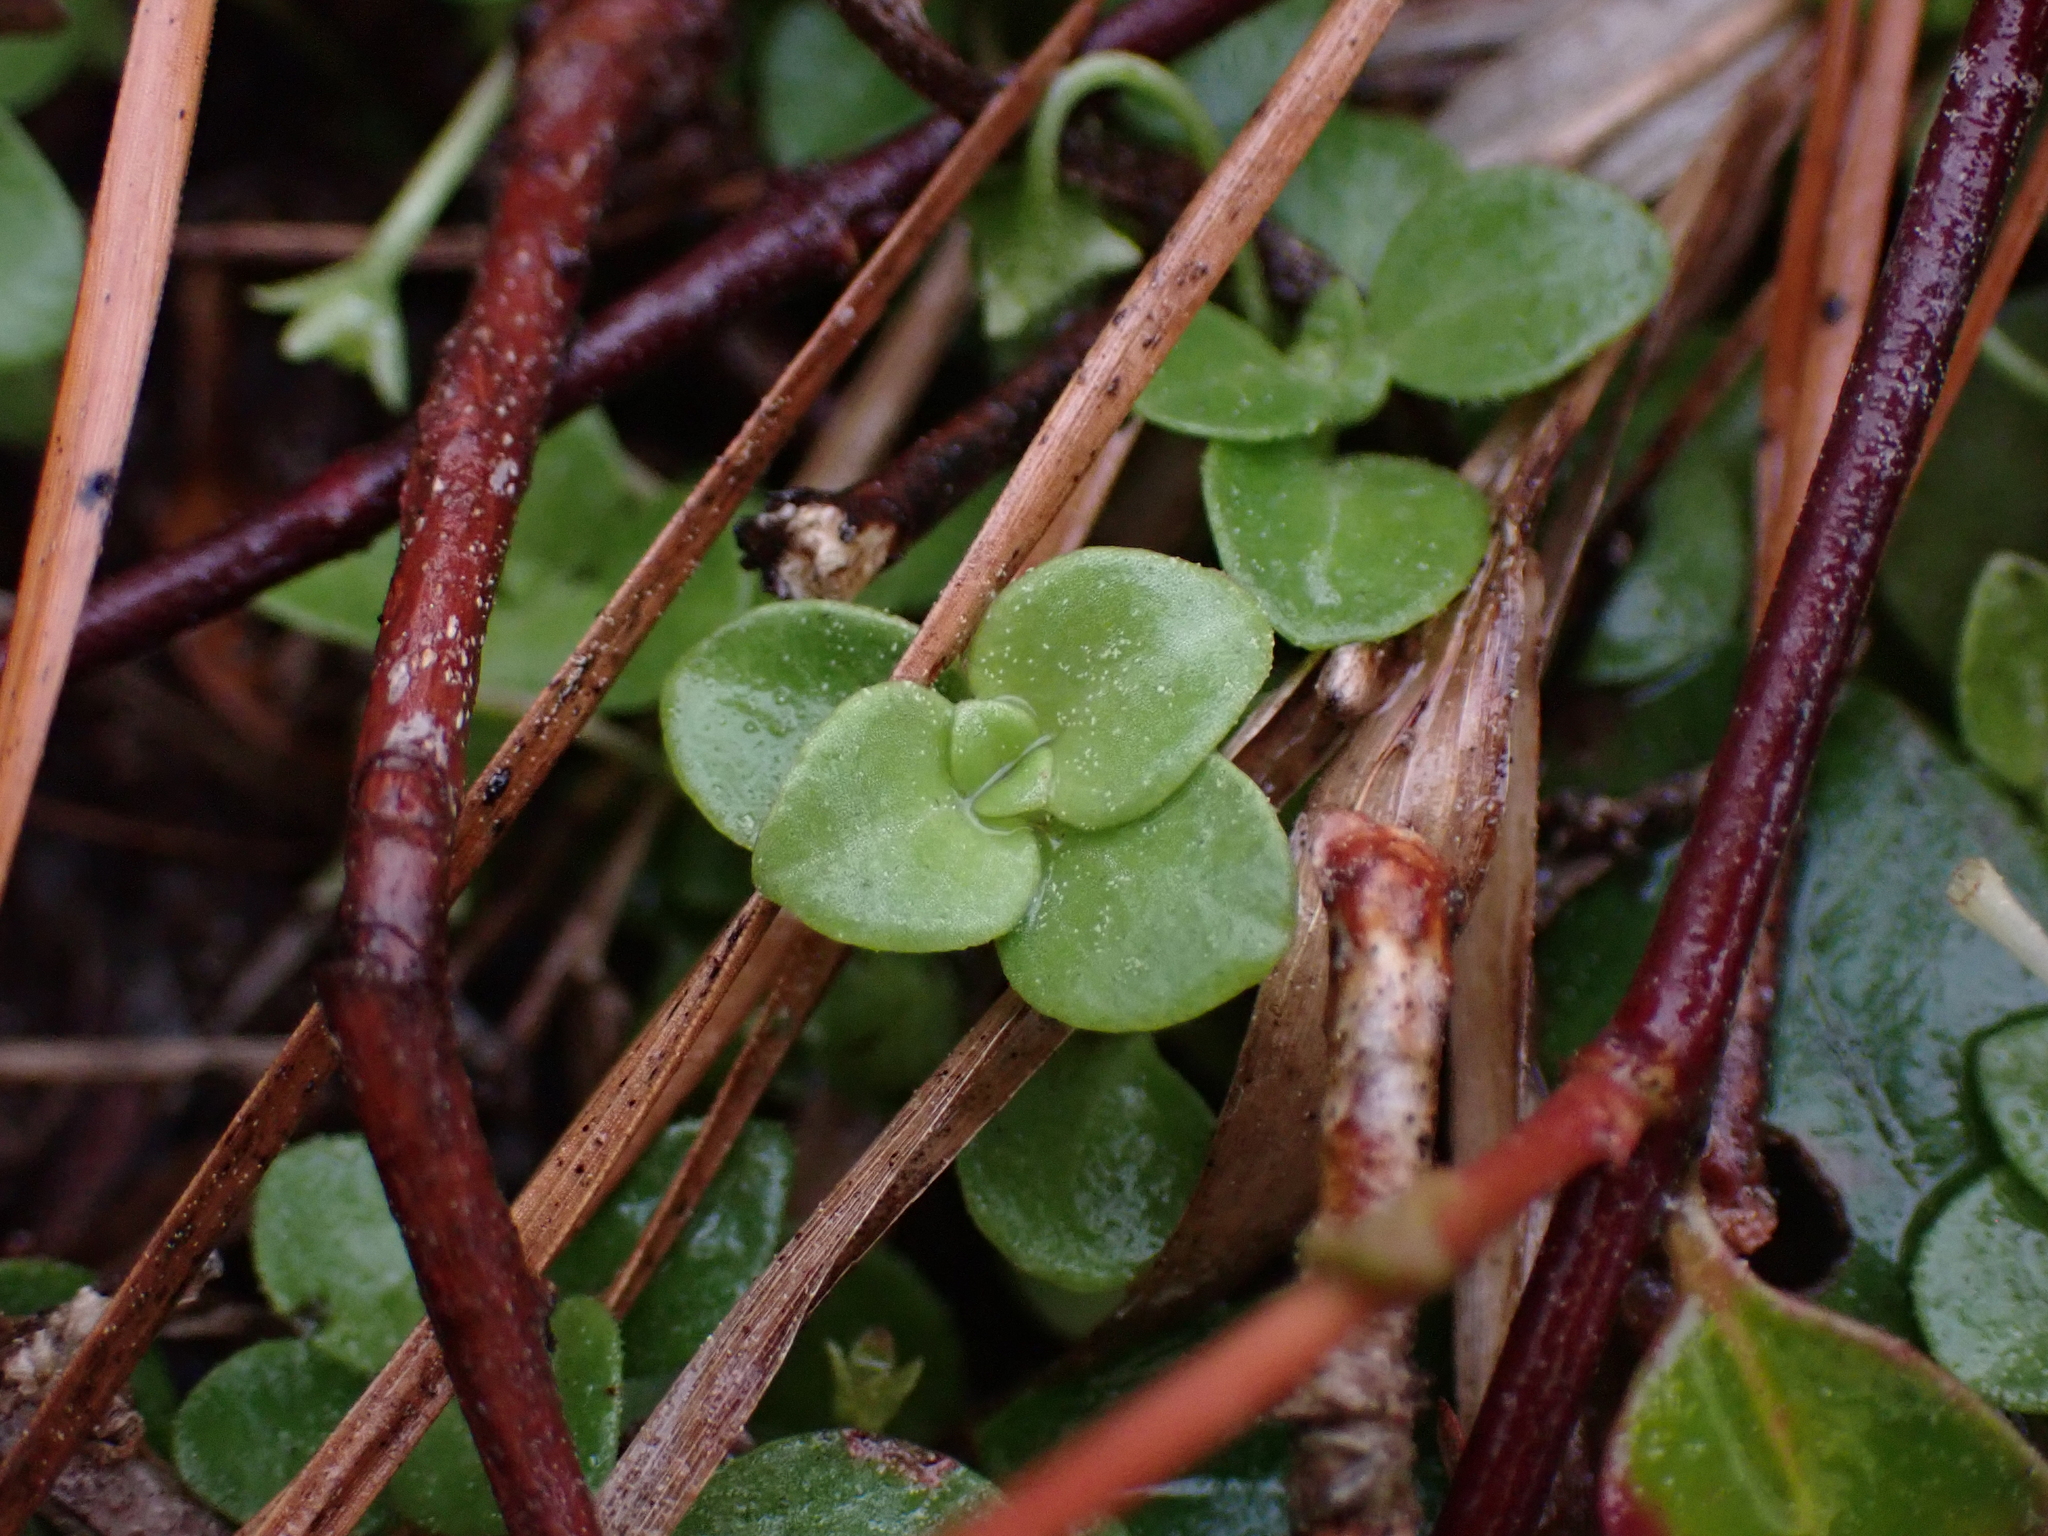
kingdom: Plantae
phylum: Tracheophyta
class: Magnoliopsida
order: Gentianales
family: Rubiaceae
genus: Houstonia
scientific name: Houstonia procumbens
